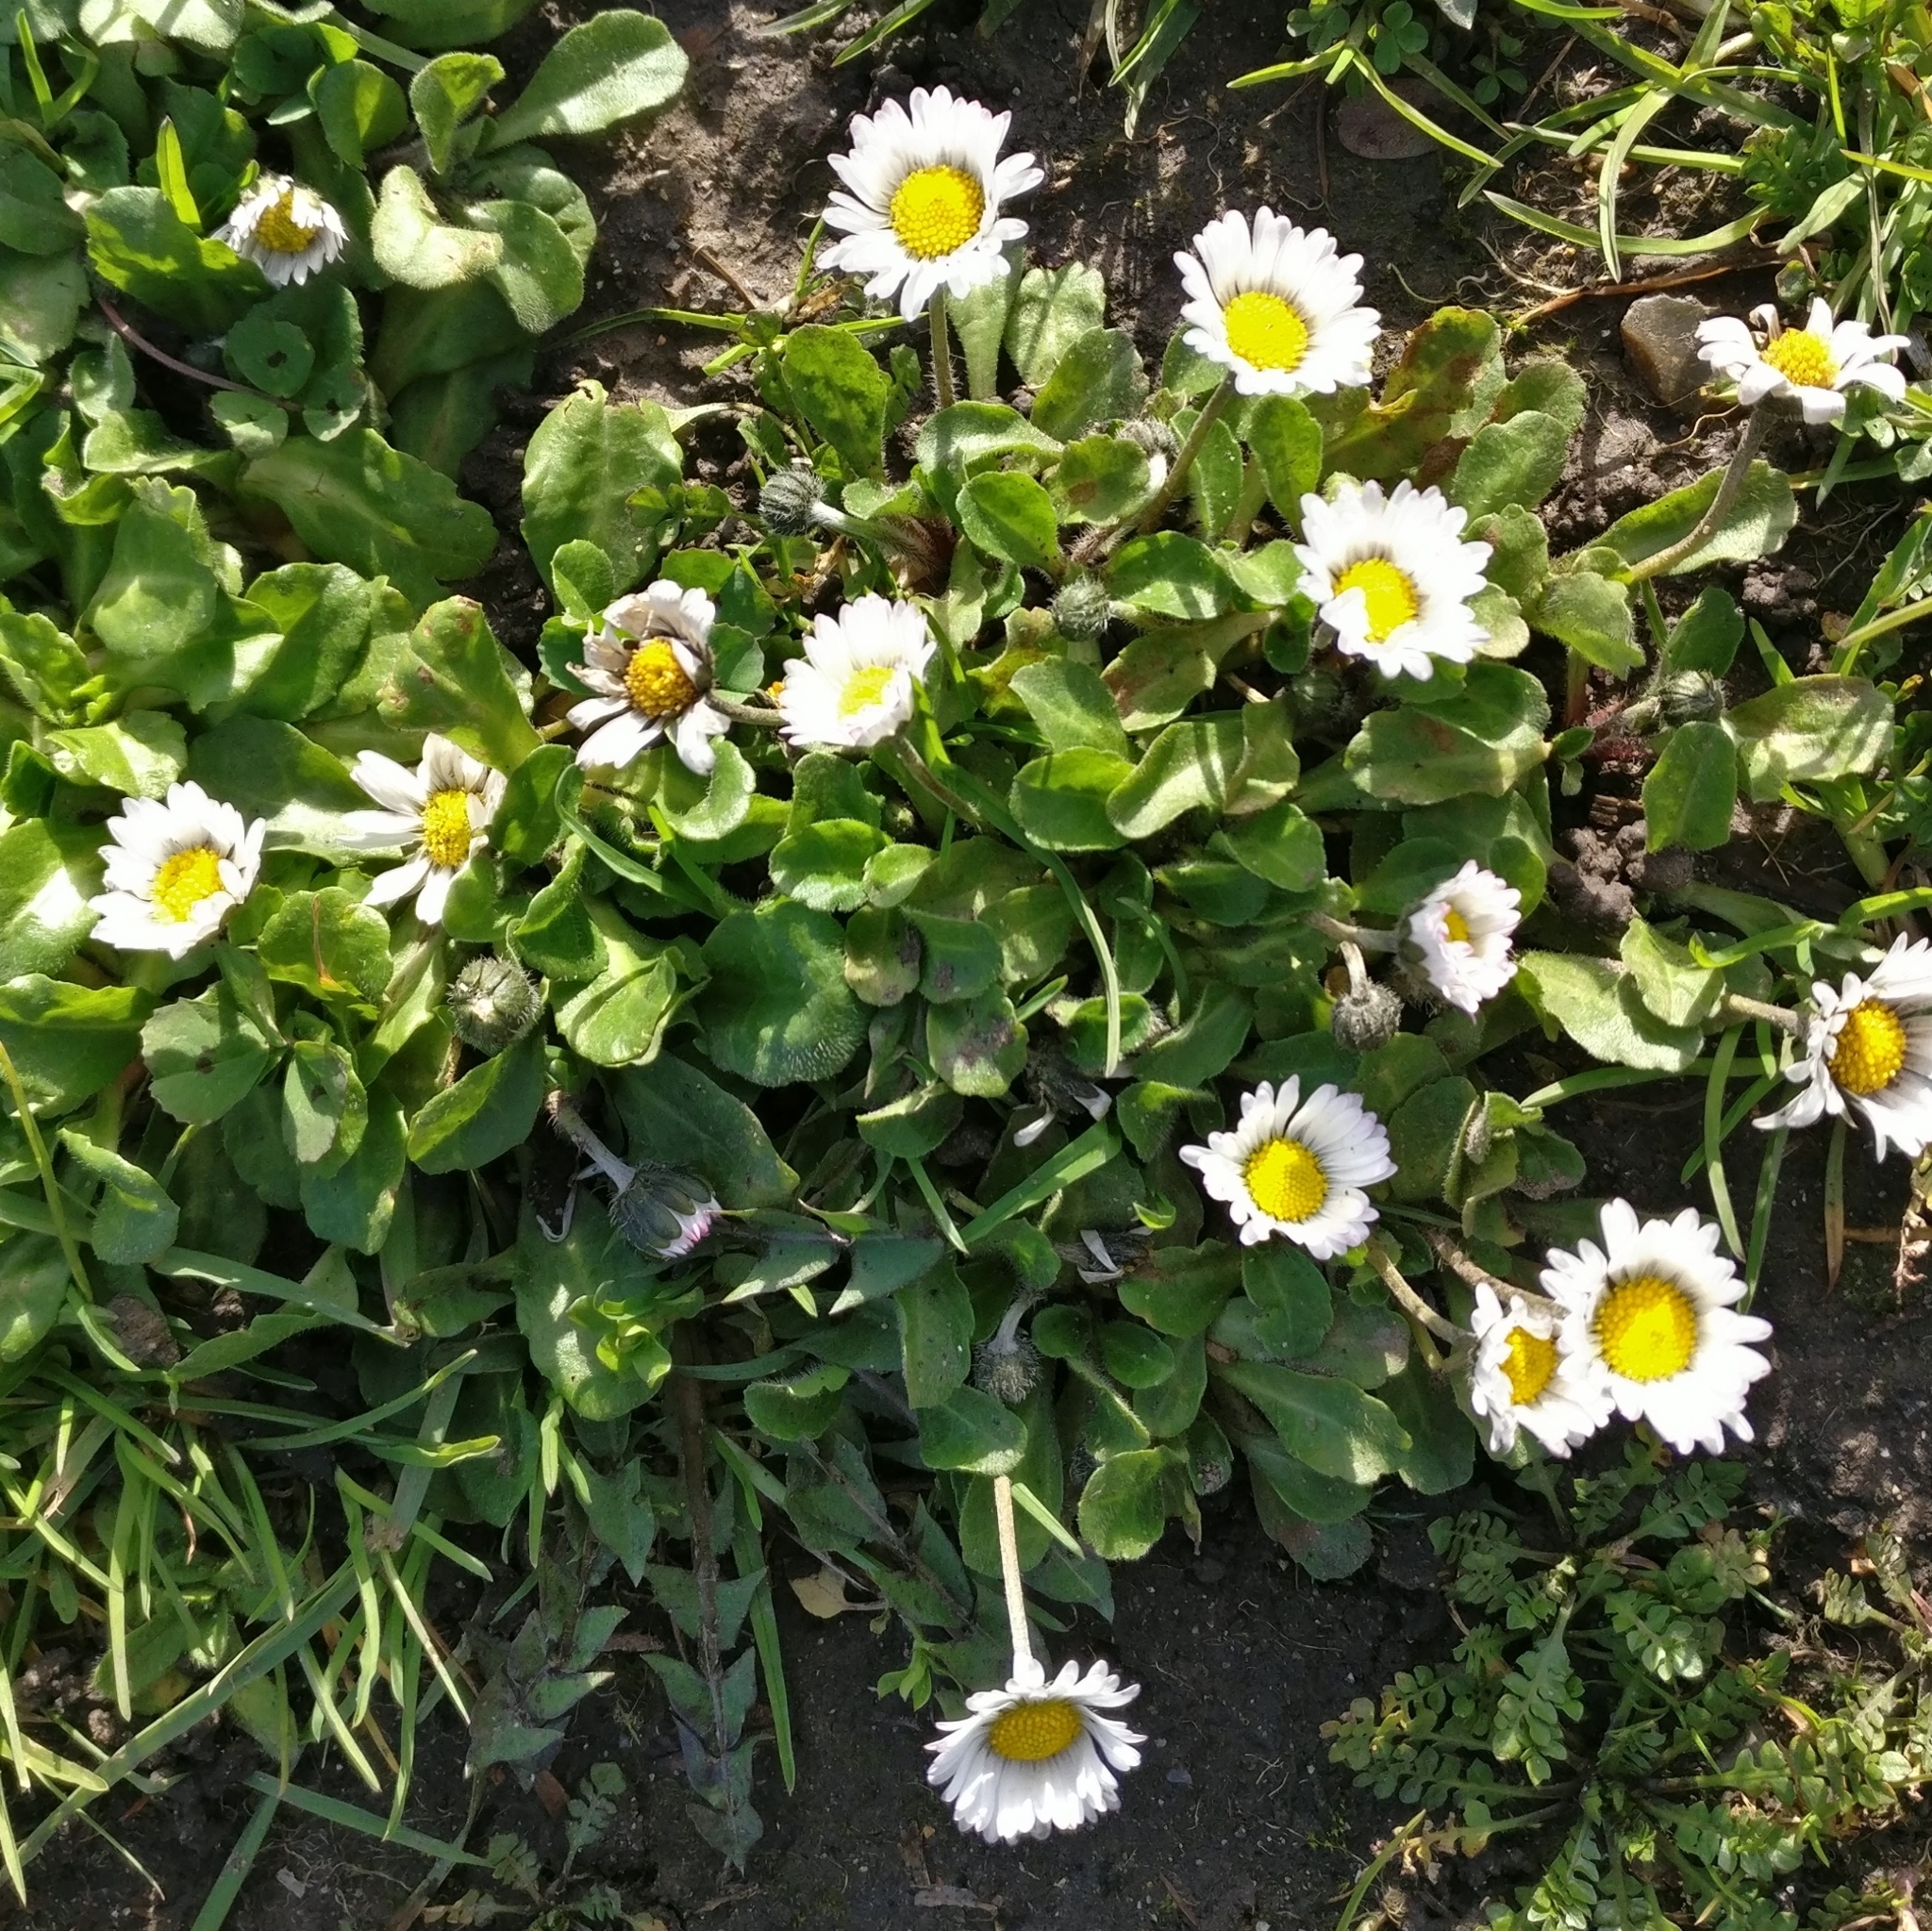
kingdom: Plantae
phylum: Tracheophyta
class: Magnoliopsida
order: Asterales
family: Asteraceae
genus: Bellis
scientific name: Bellis perennis
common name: Lawndaisy
